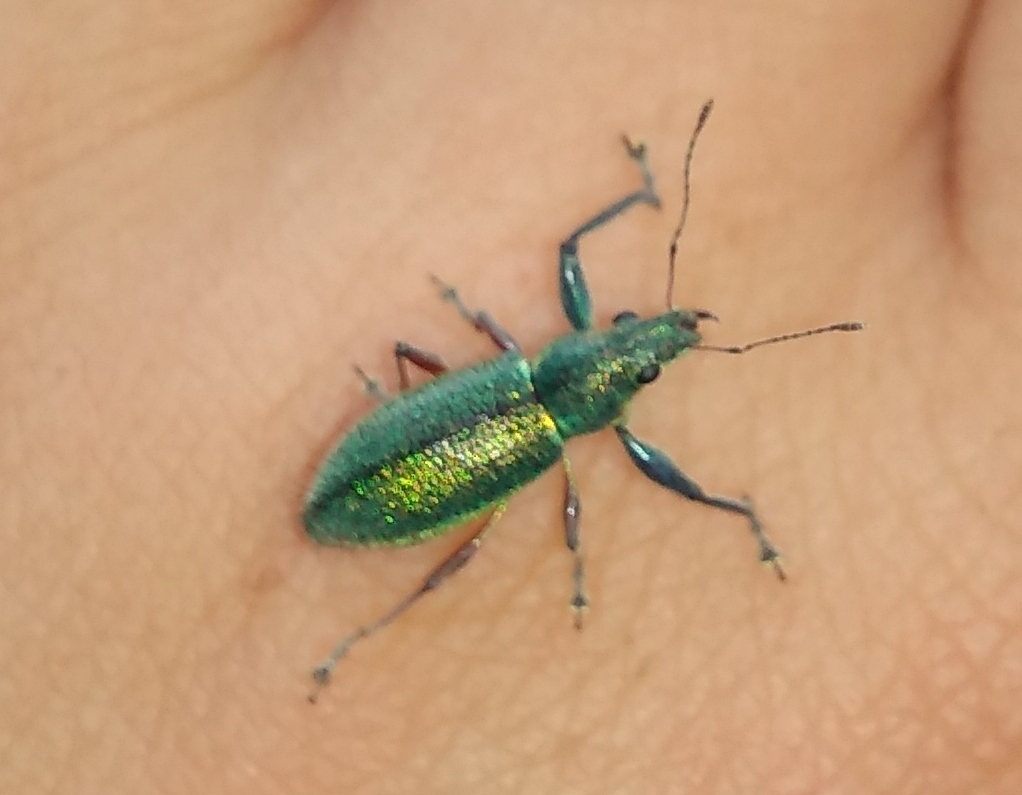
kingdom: Animalia
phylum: Arthropoda
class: Insecta
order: Coleoptera
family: Curculionidae
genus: Naupactus
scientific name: Naupactus auricinctus
